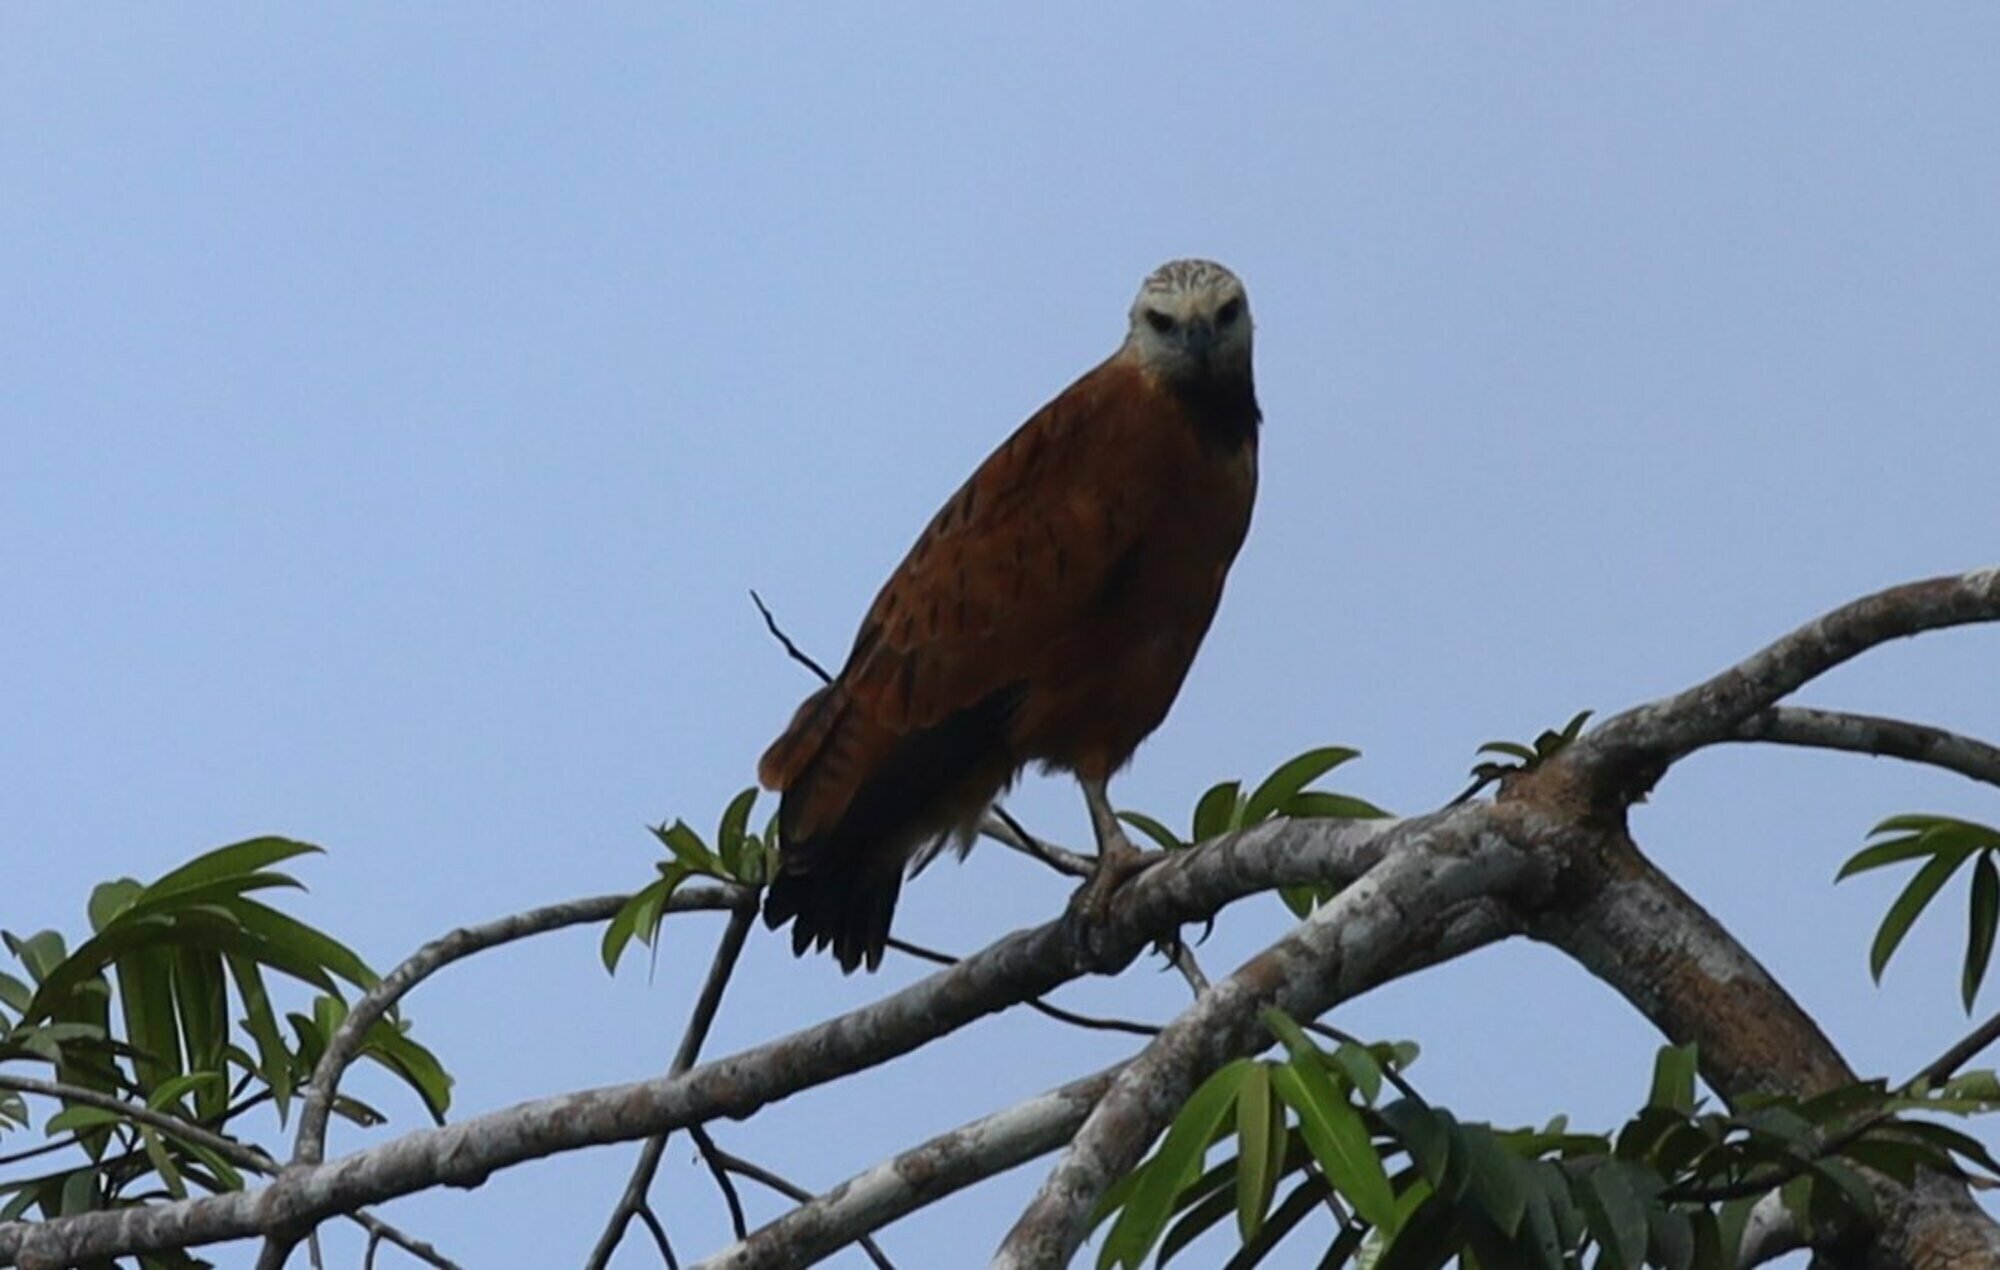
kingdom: Animalia
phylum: Chordata
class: Aves
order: Accipitriformes
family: Accipitridae
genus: Busarellus
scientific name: Busarellus nigricollis
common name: Black-collared hawk
